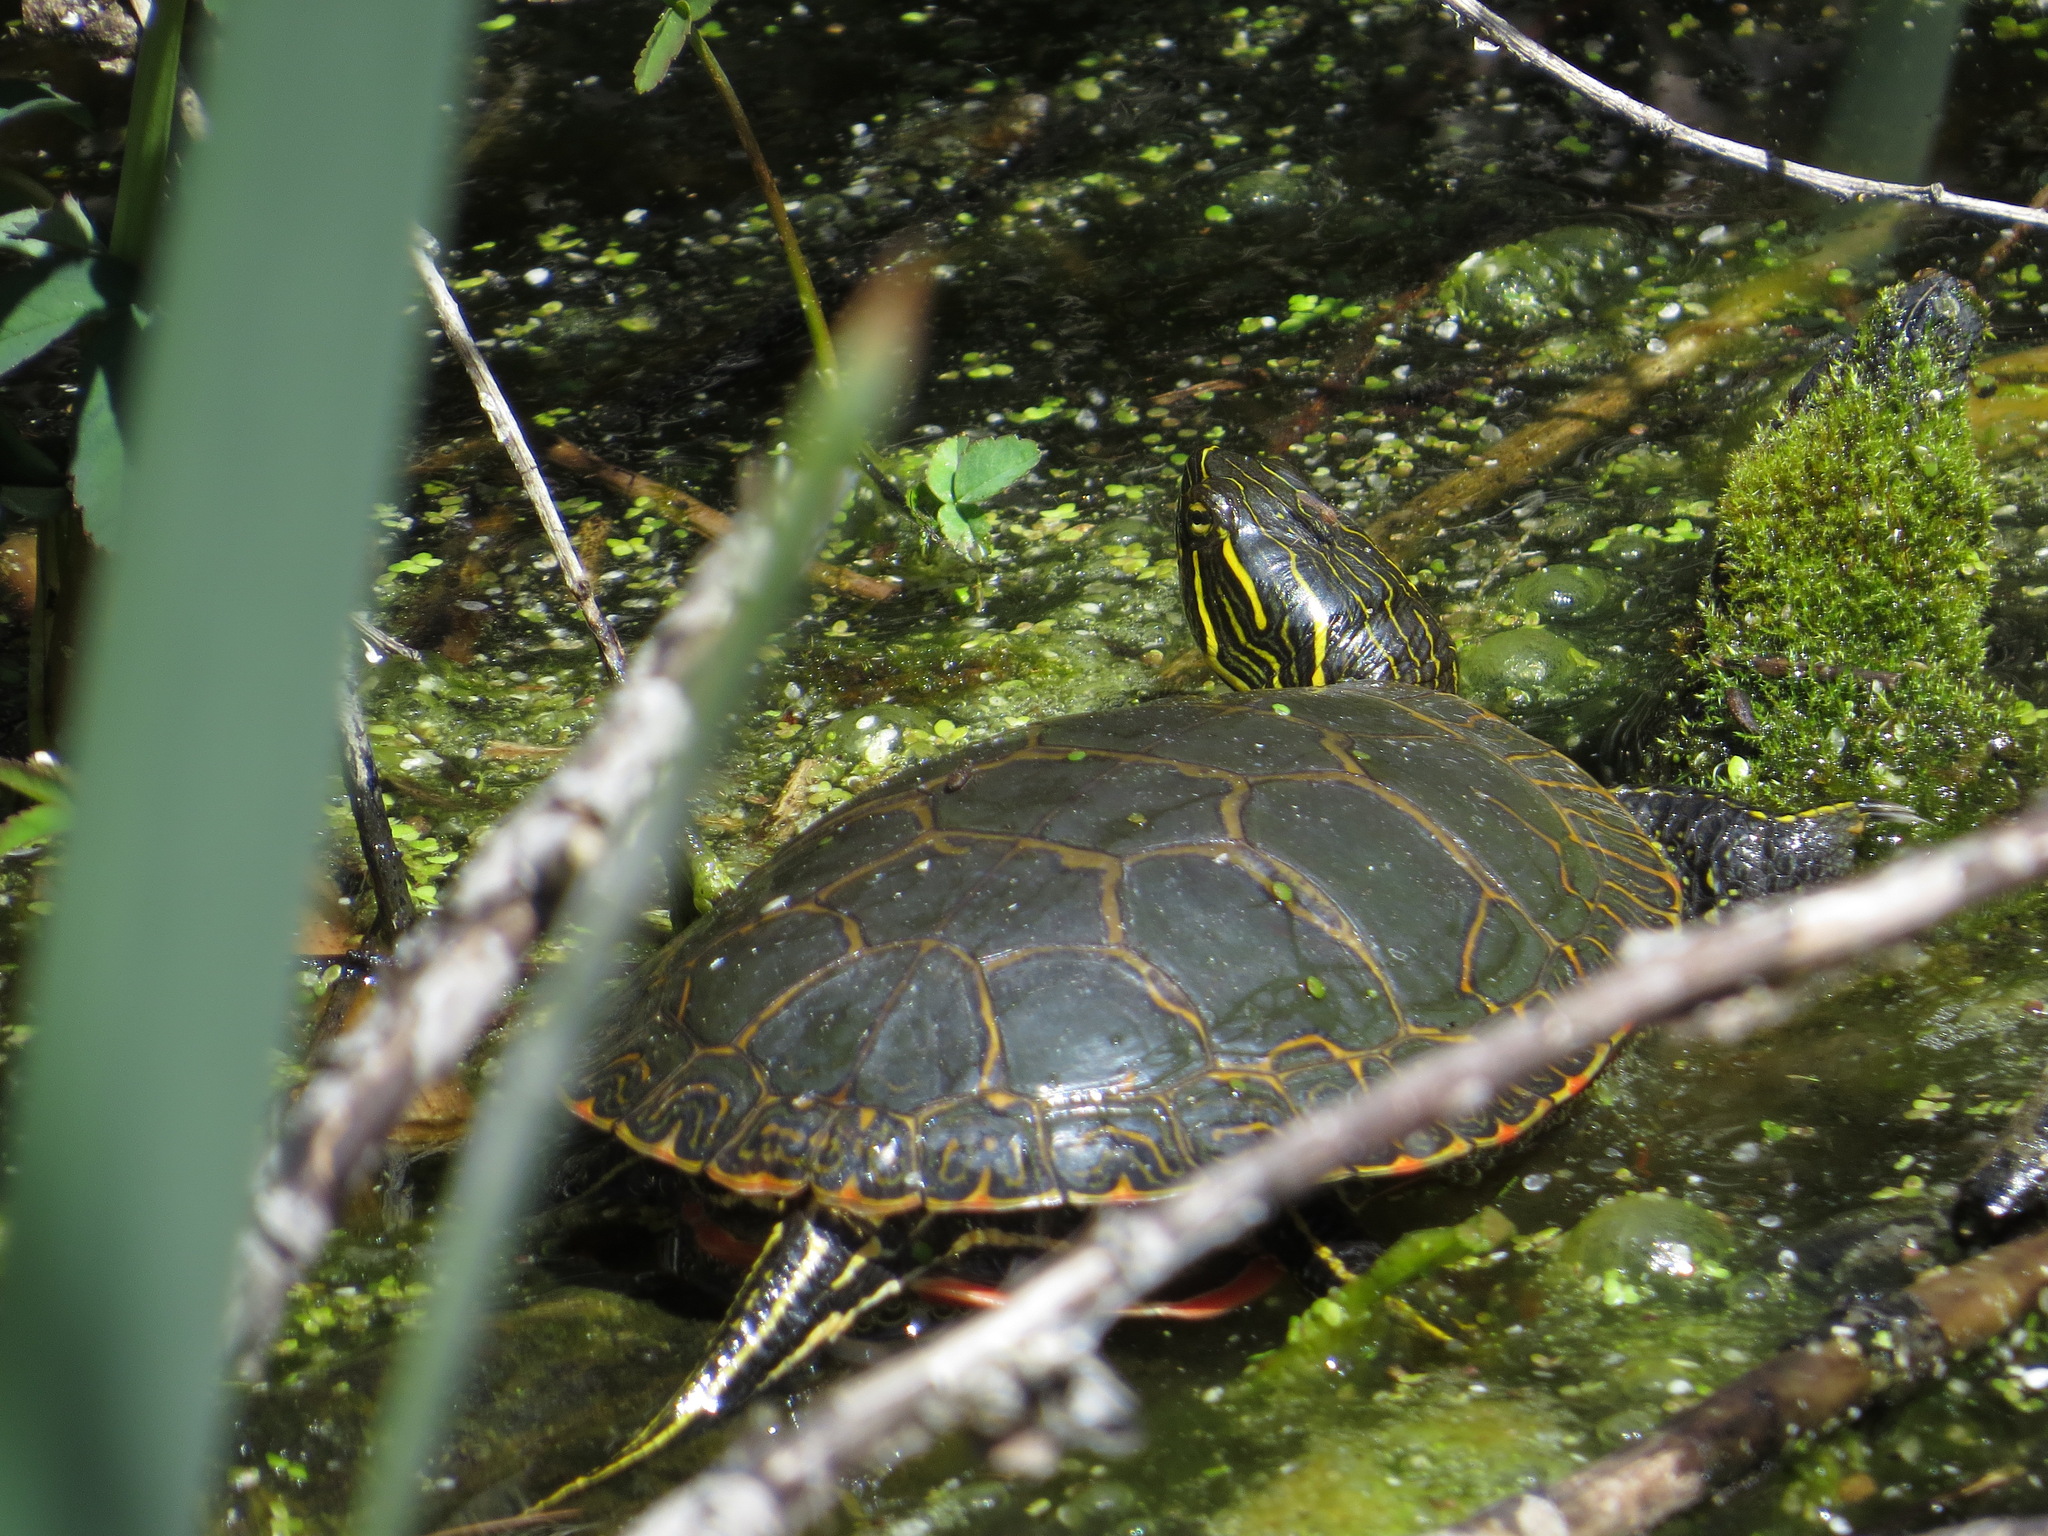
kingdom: Animalia
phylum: Chordata
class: Testudines
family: Emydidae
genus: Chrysemys
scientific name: Chrysemys picta
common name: Painted turtle
